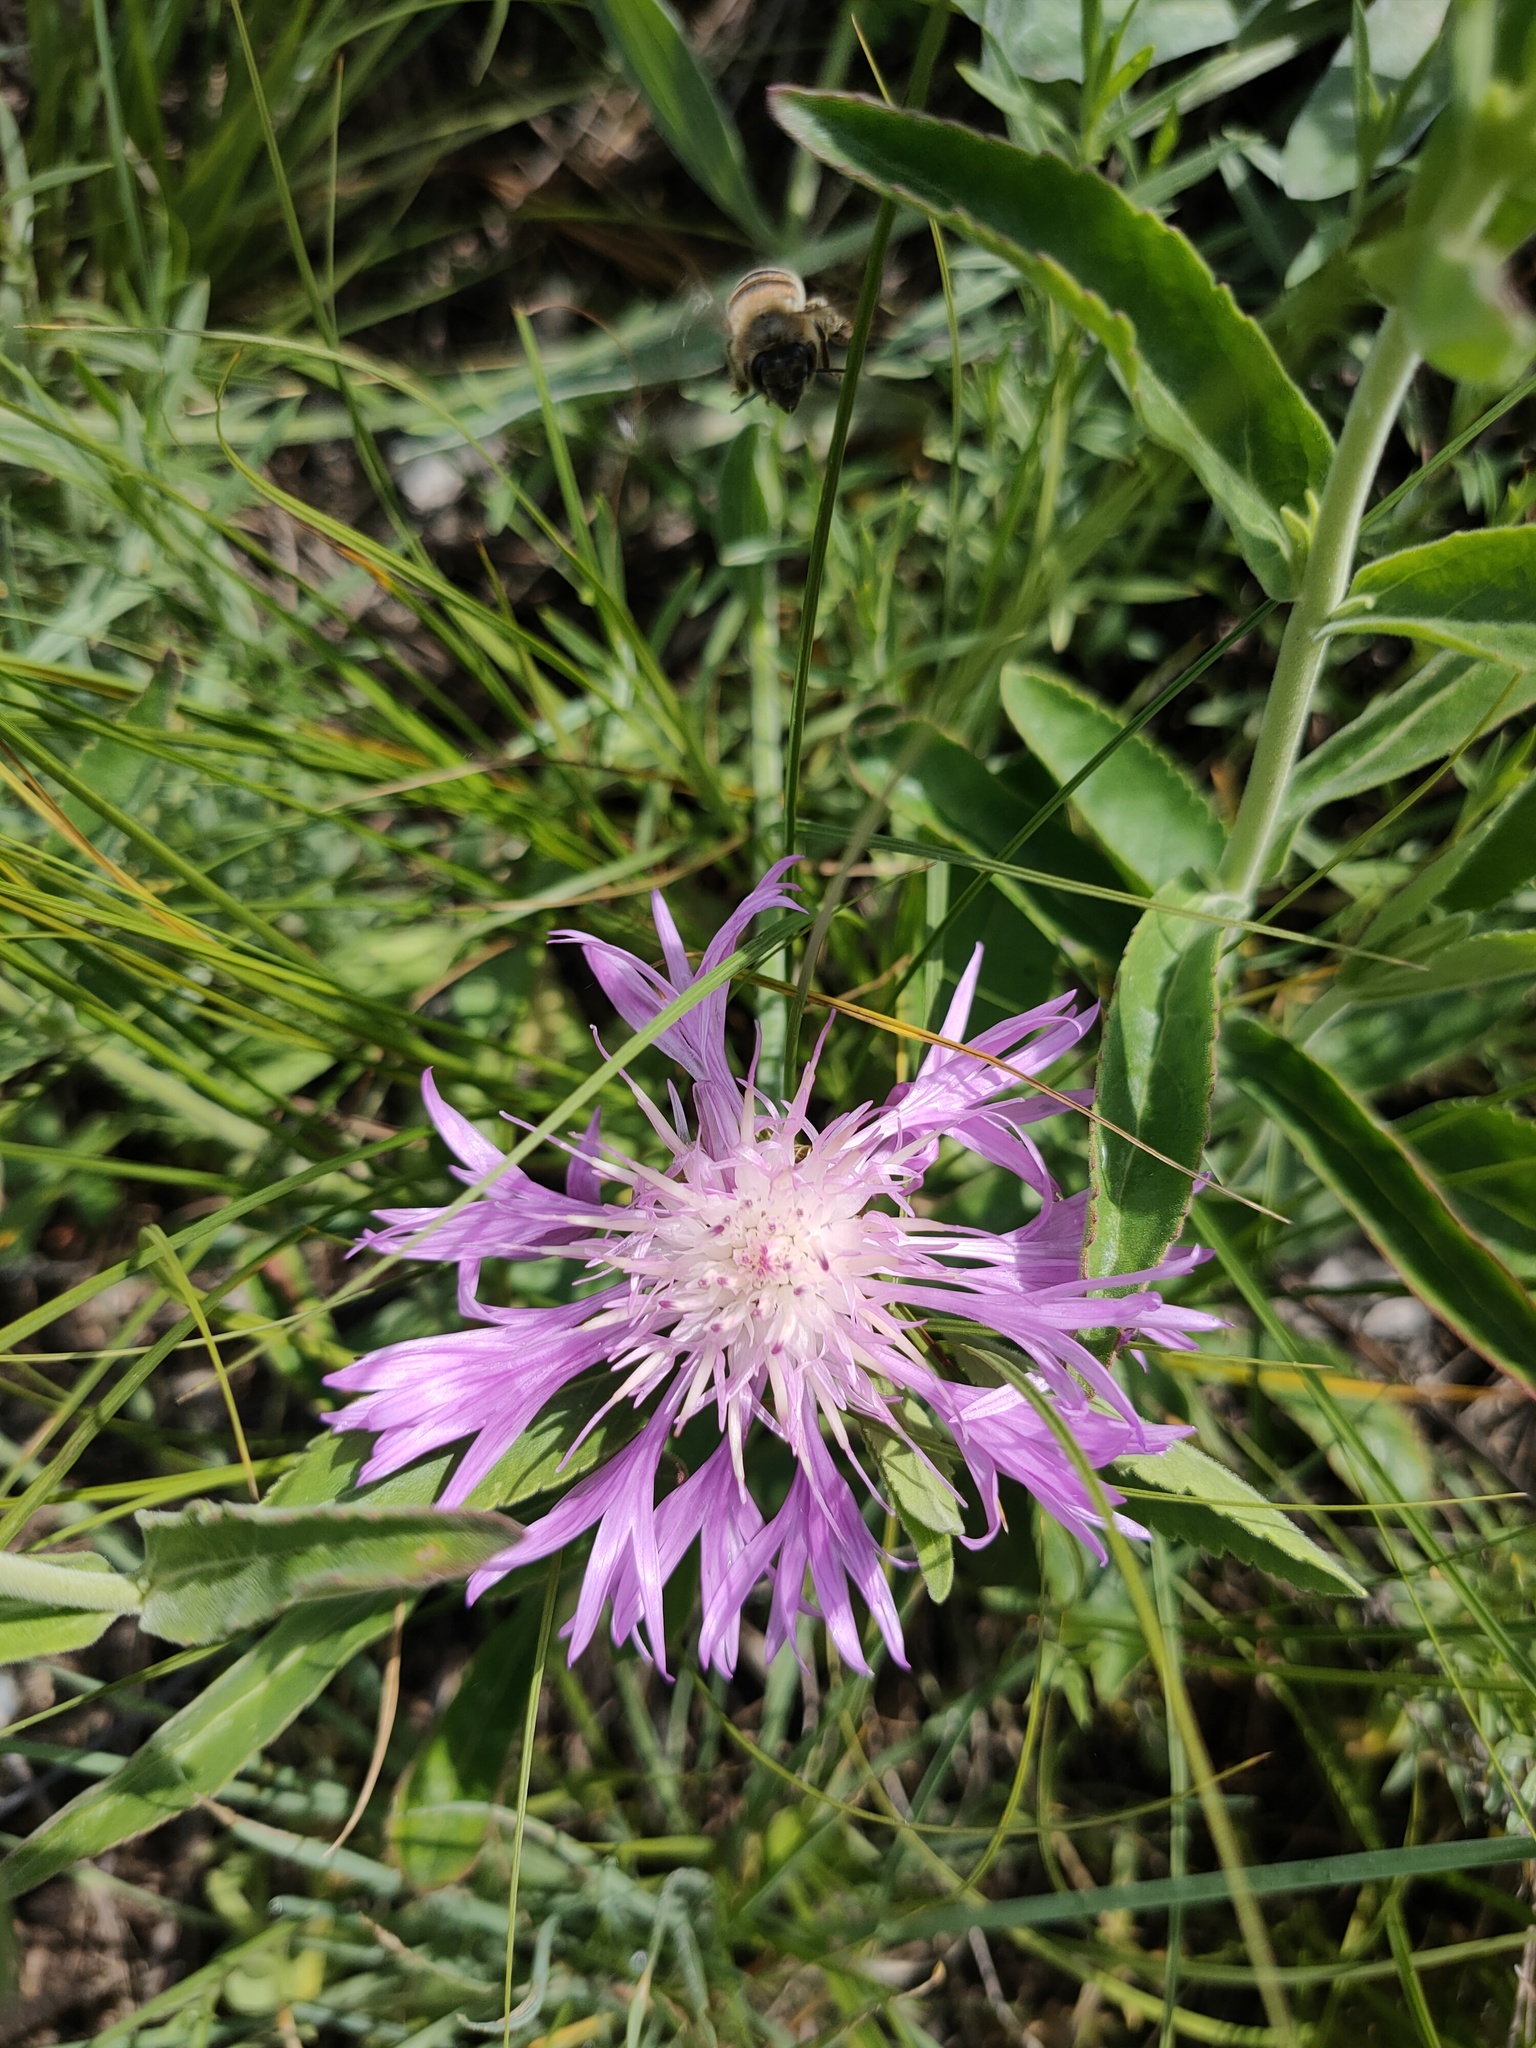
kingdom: Plantae
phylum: Tracheophyta
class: Magnoliopsida
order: Asterales
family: Asteraceae
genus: Psephellus
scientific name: Psephellus sibiricus
